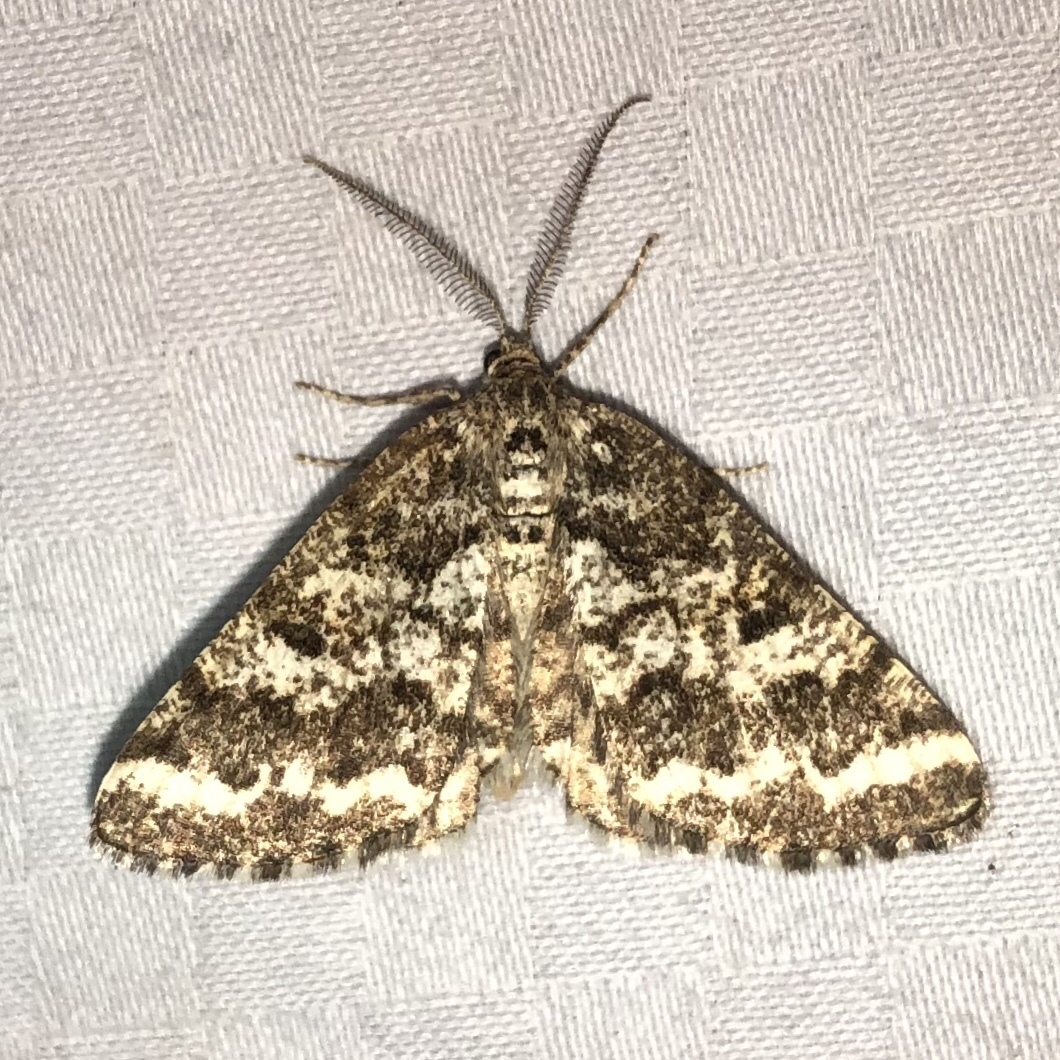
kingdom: Animalia
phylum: Arthropoda
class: Insecta
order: Lepidoptera
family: Geometridae
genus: Eufidonia
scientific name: Eufidonia notataria
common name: Powder moth
